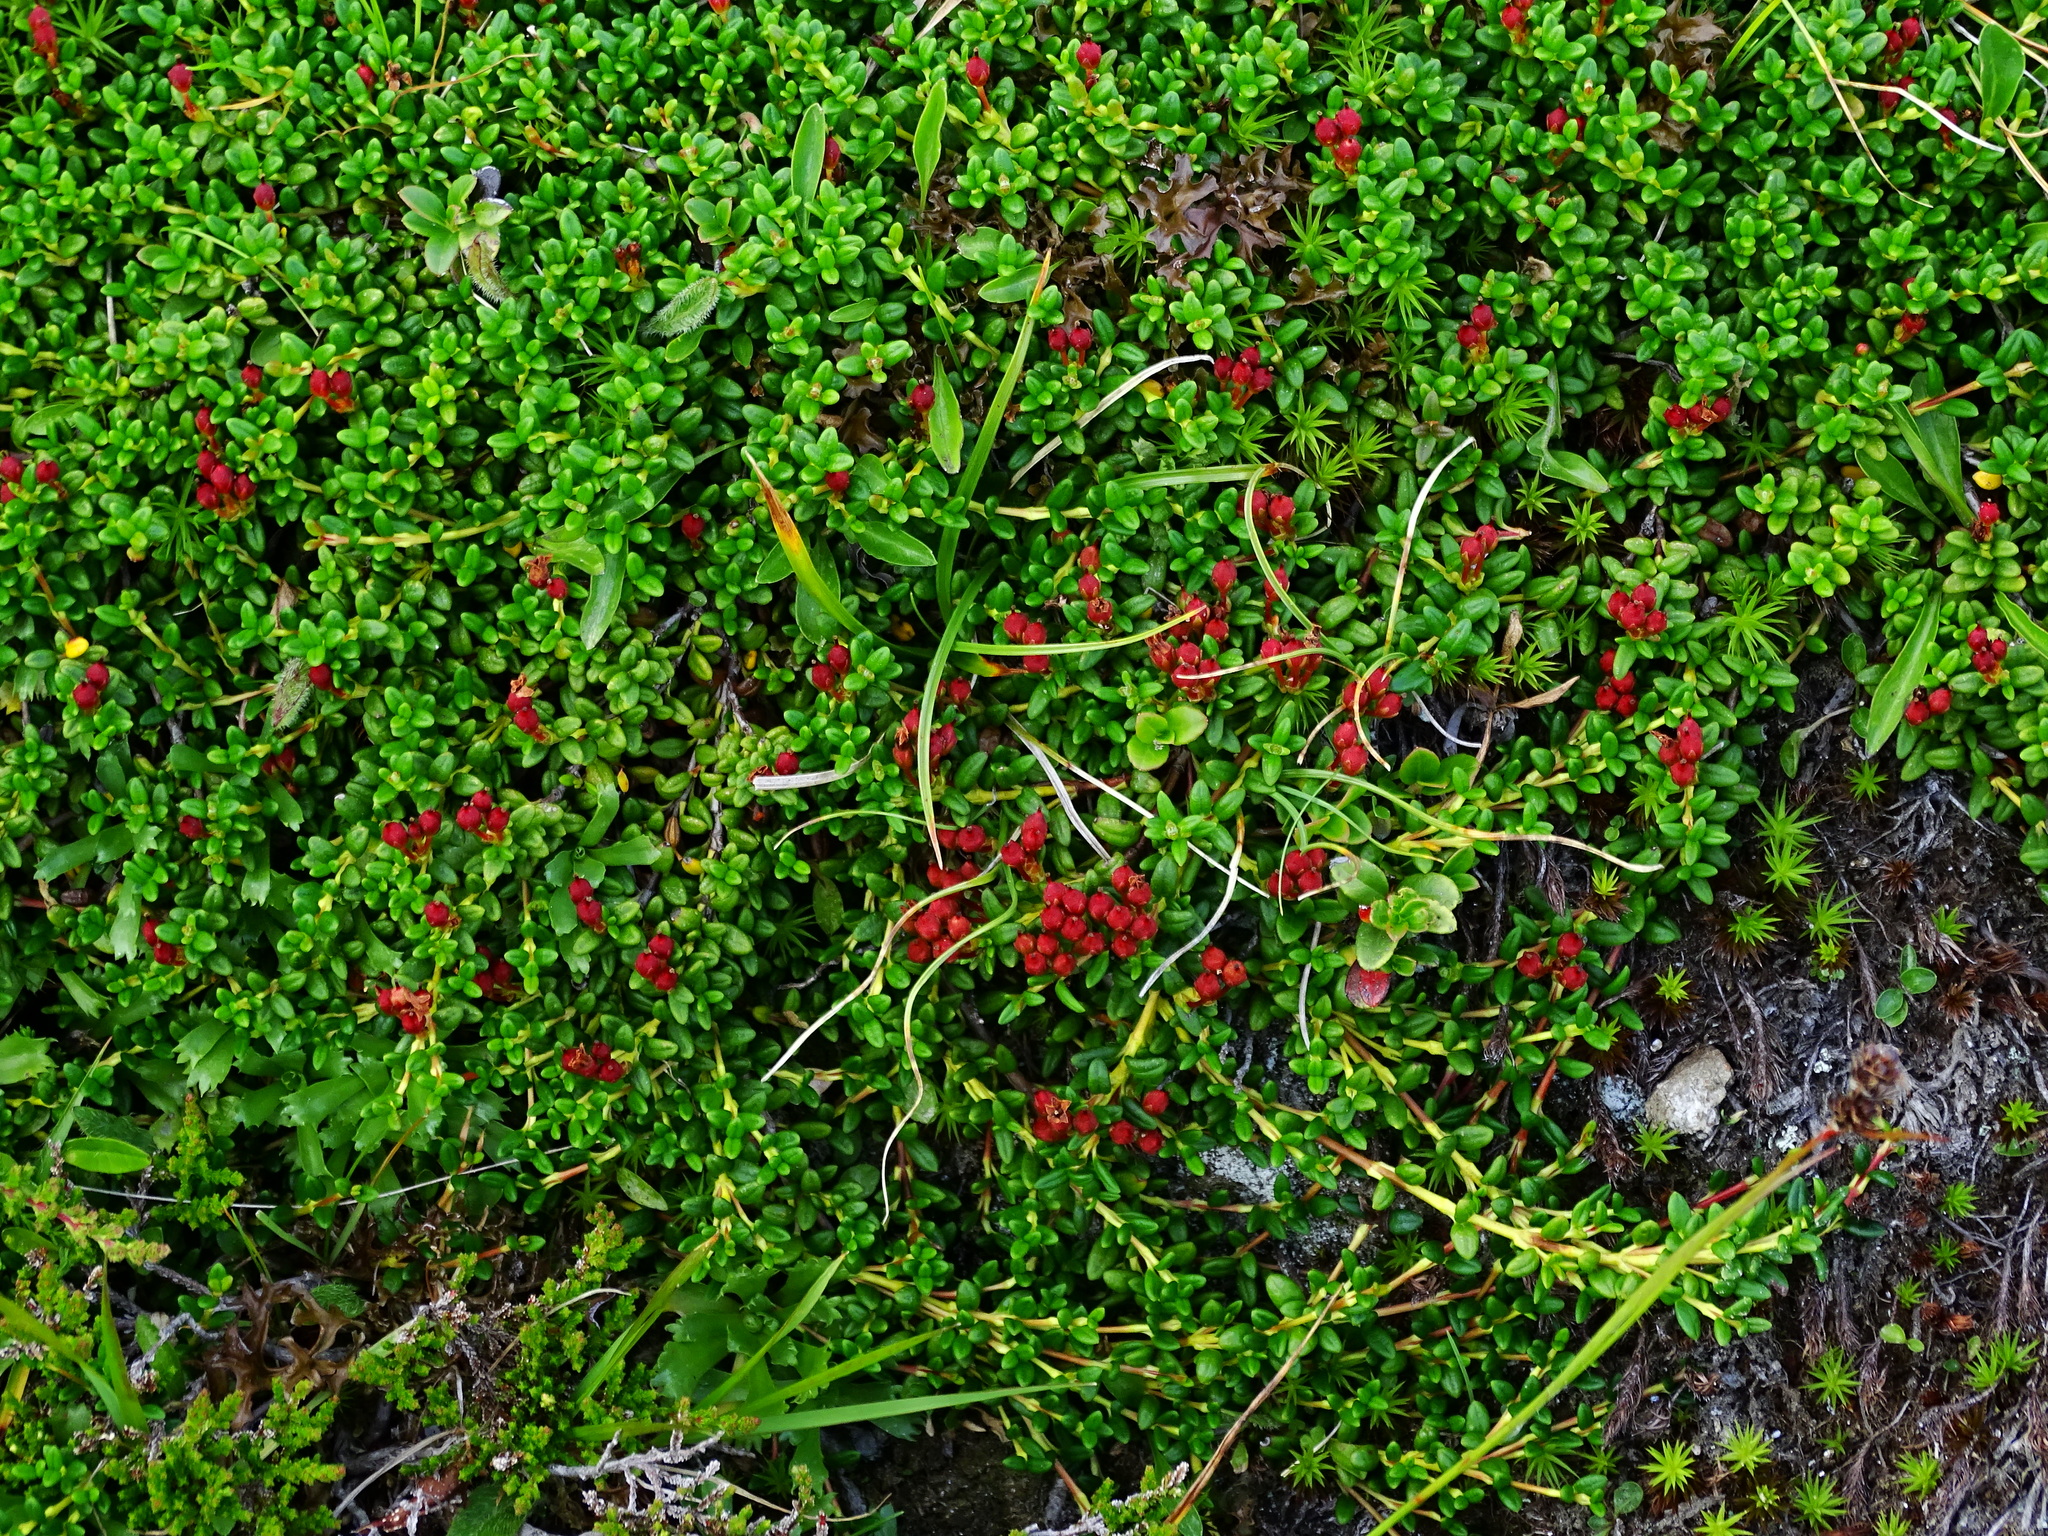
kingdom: Plantae
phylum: Tracheophyta
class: Magnoliopsida
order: Ericales
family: Ericaceae
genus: Kalmia
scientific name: Kalmia procumbens
